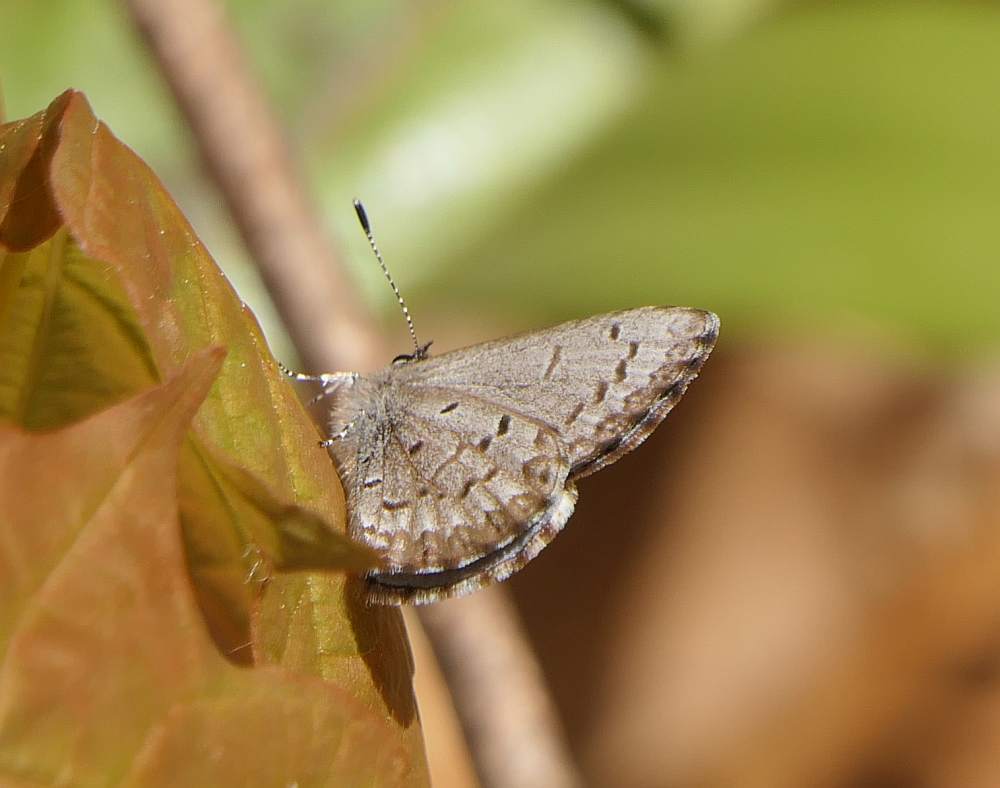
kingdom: Animalia
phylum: Arthropoda
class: Insecta
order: Lepidoptera
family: Lycaenidae
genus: Celastrina
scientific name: Celastrina lucia
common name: Lucia azure
